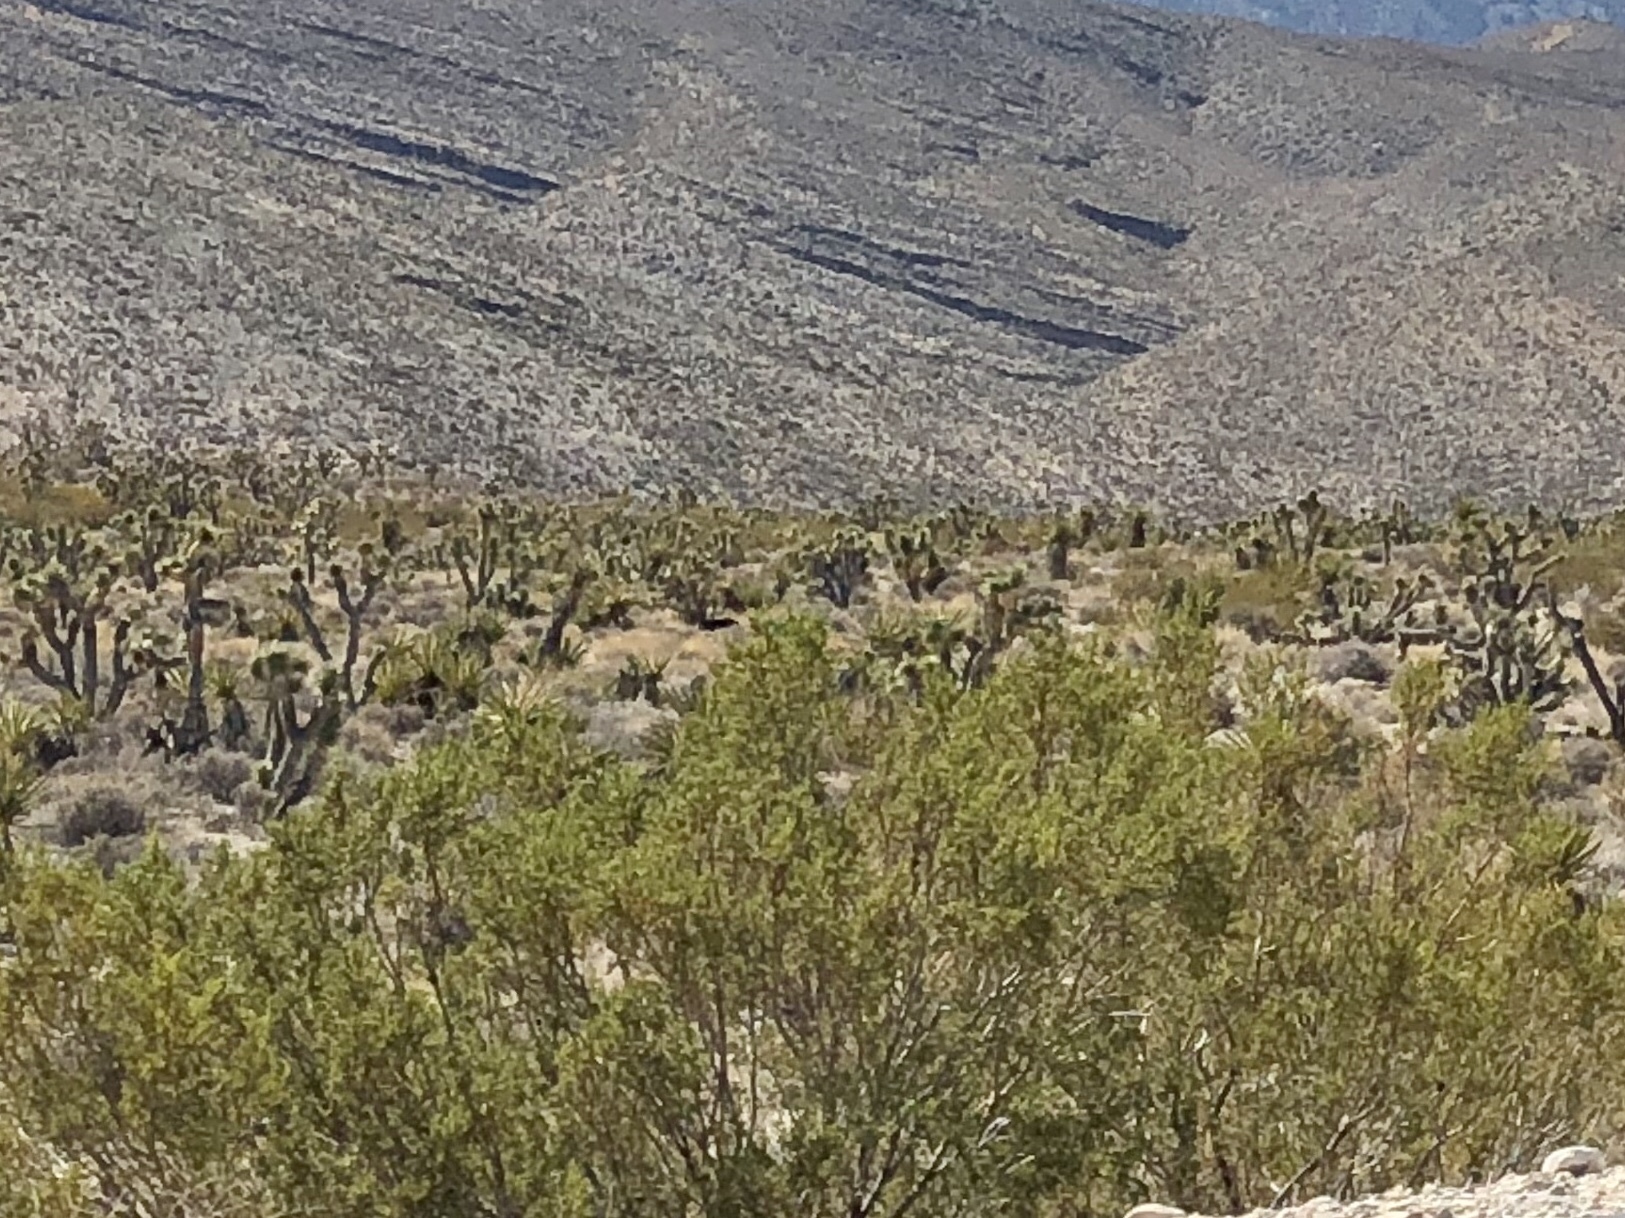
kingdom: Plantae
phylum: Tracheophyta
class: Magnoliopsida
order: Zygophyllales
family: Zygophyllaceae
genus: Larrea
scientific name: Larrea tridentata
